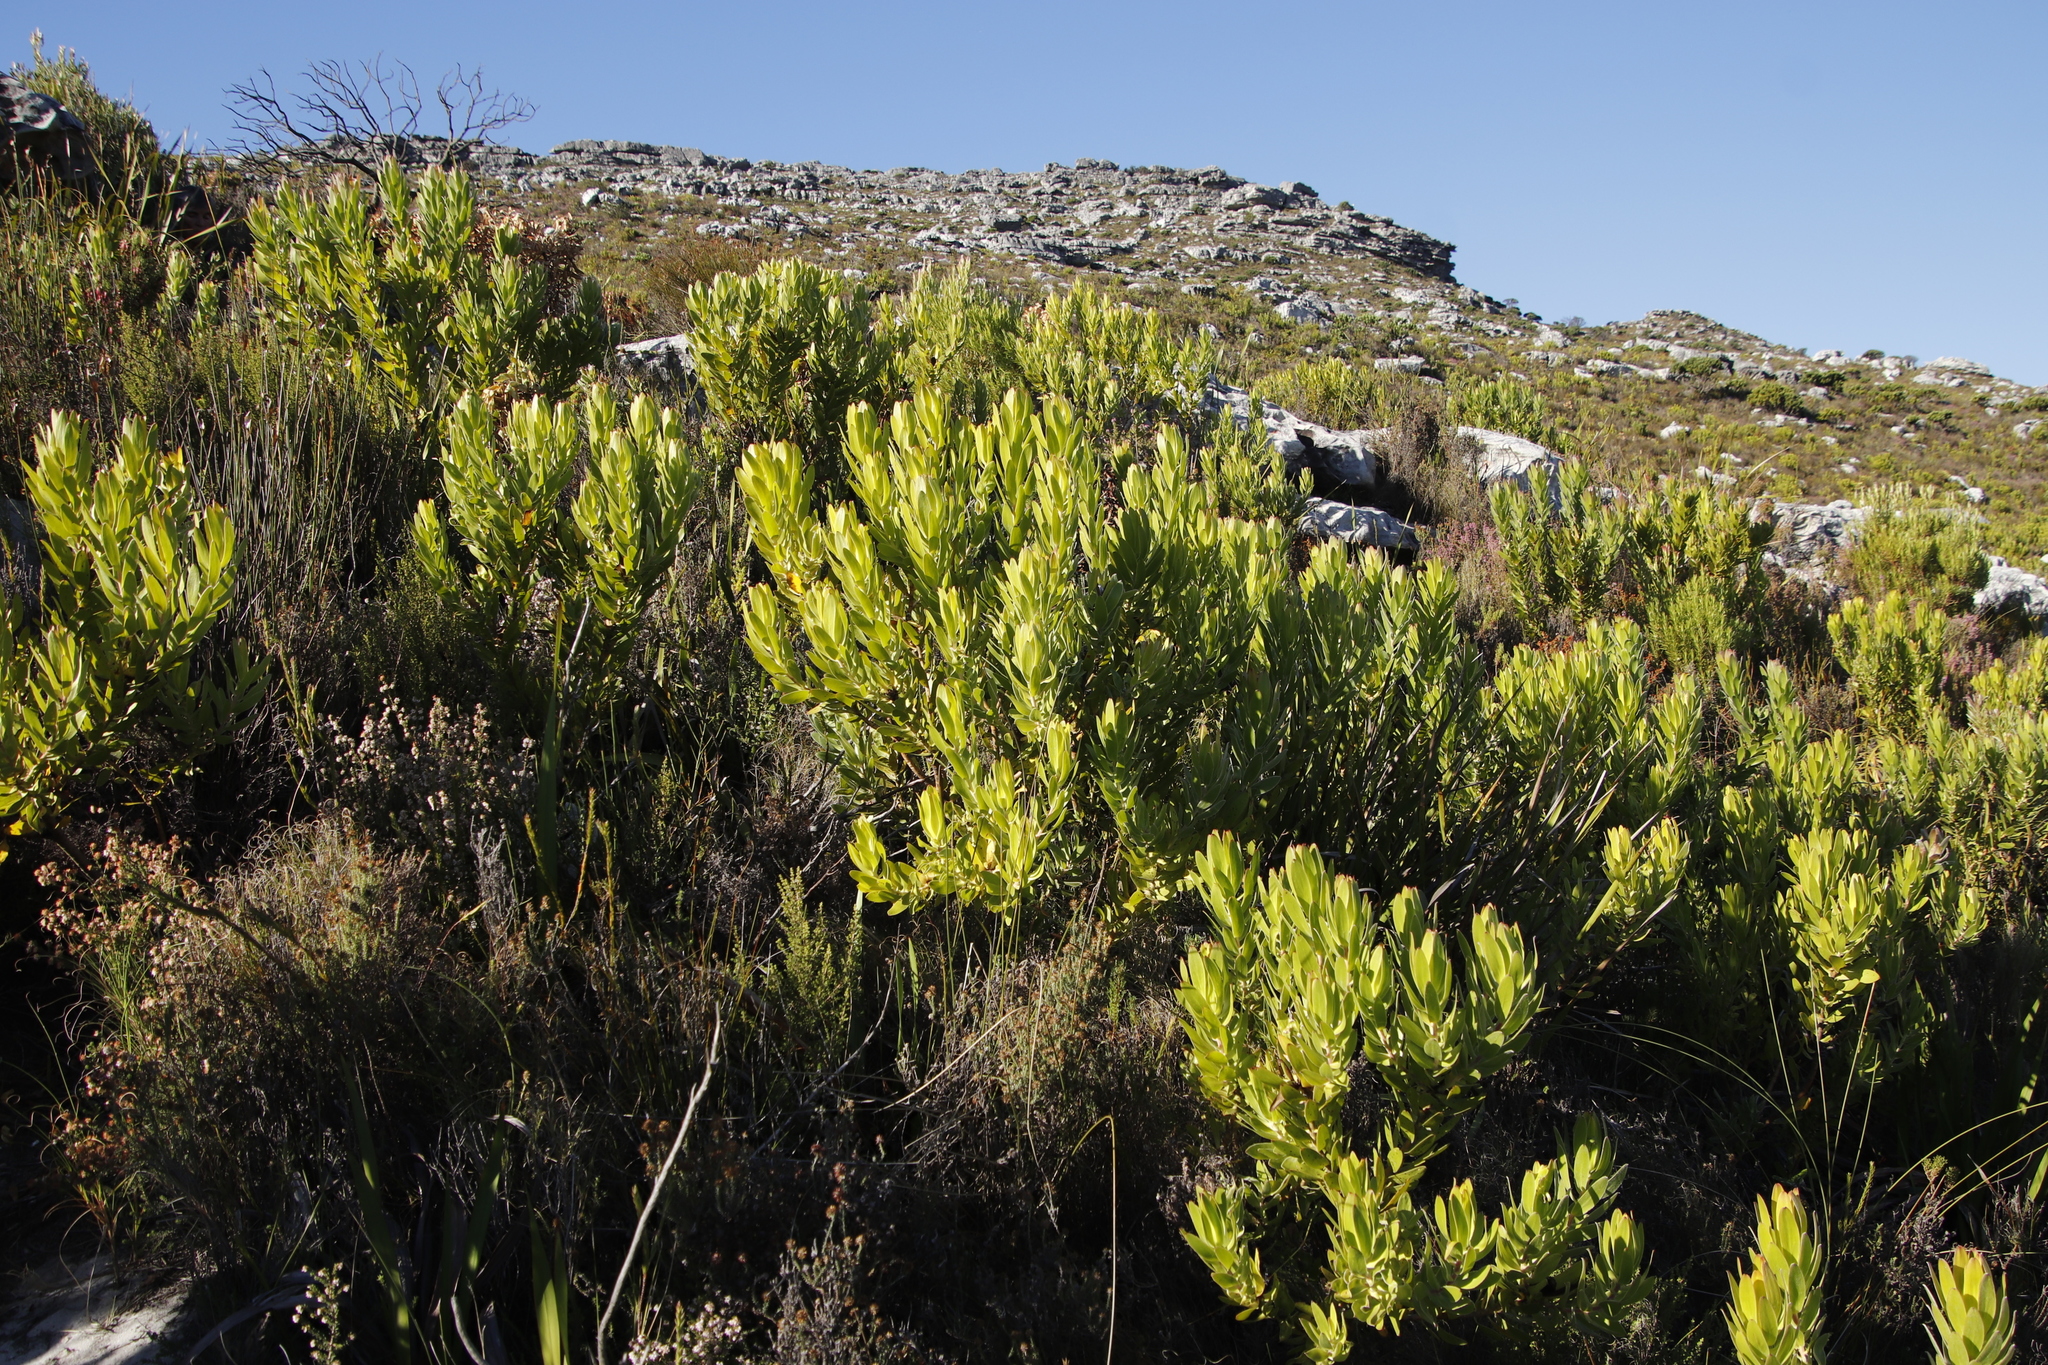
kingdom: Plantae
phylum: Tracheophyta
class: Magnoliopsida
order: Proteales
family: Proteaceae
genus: Leucadendron
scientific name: Leucadendron laureolum
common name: Golden sunshinebush
